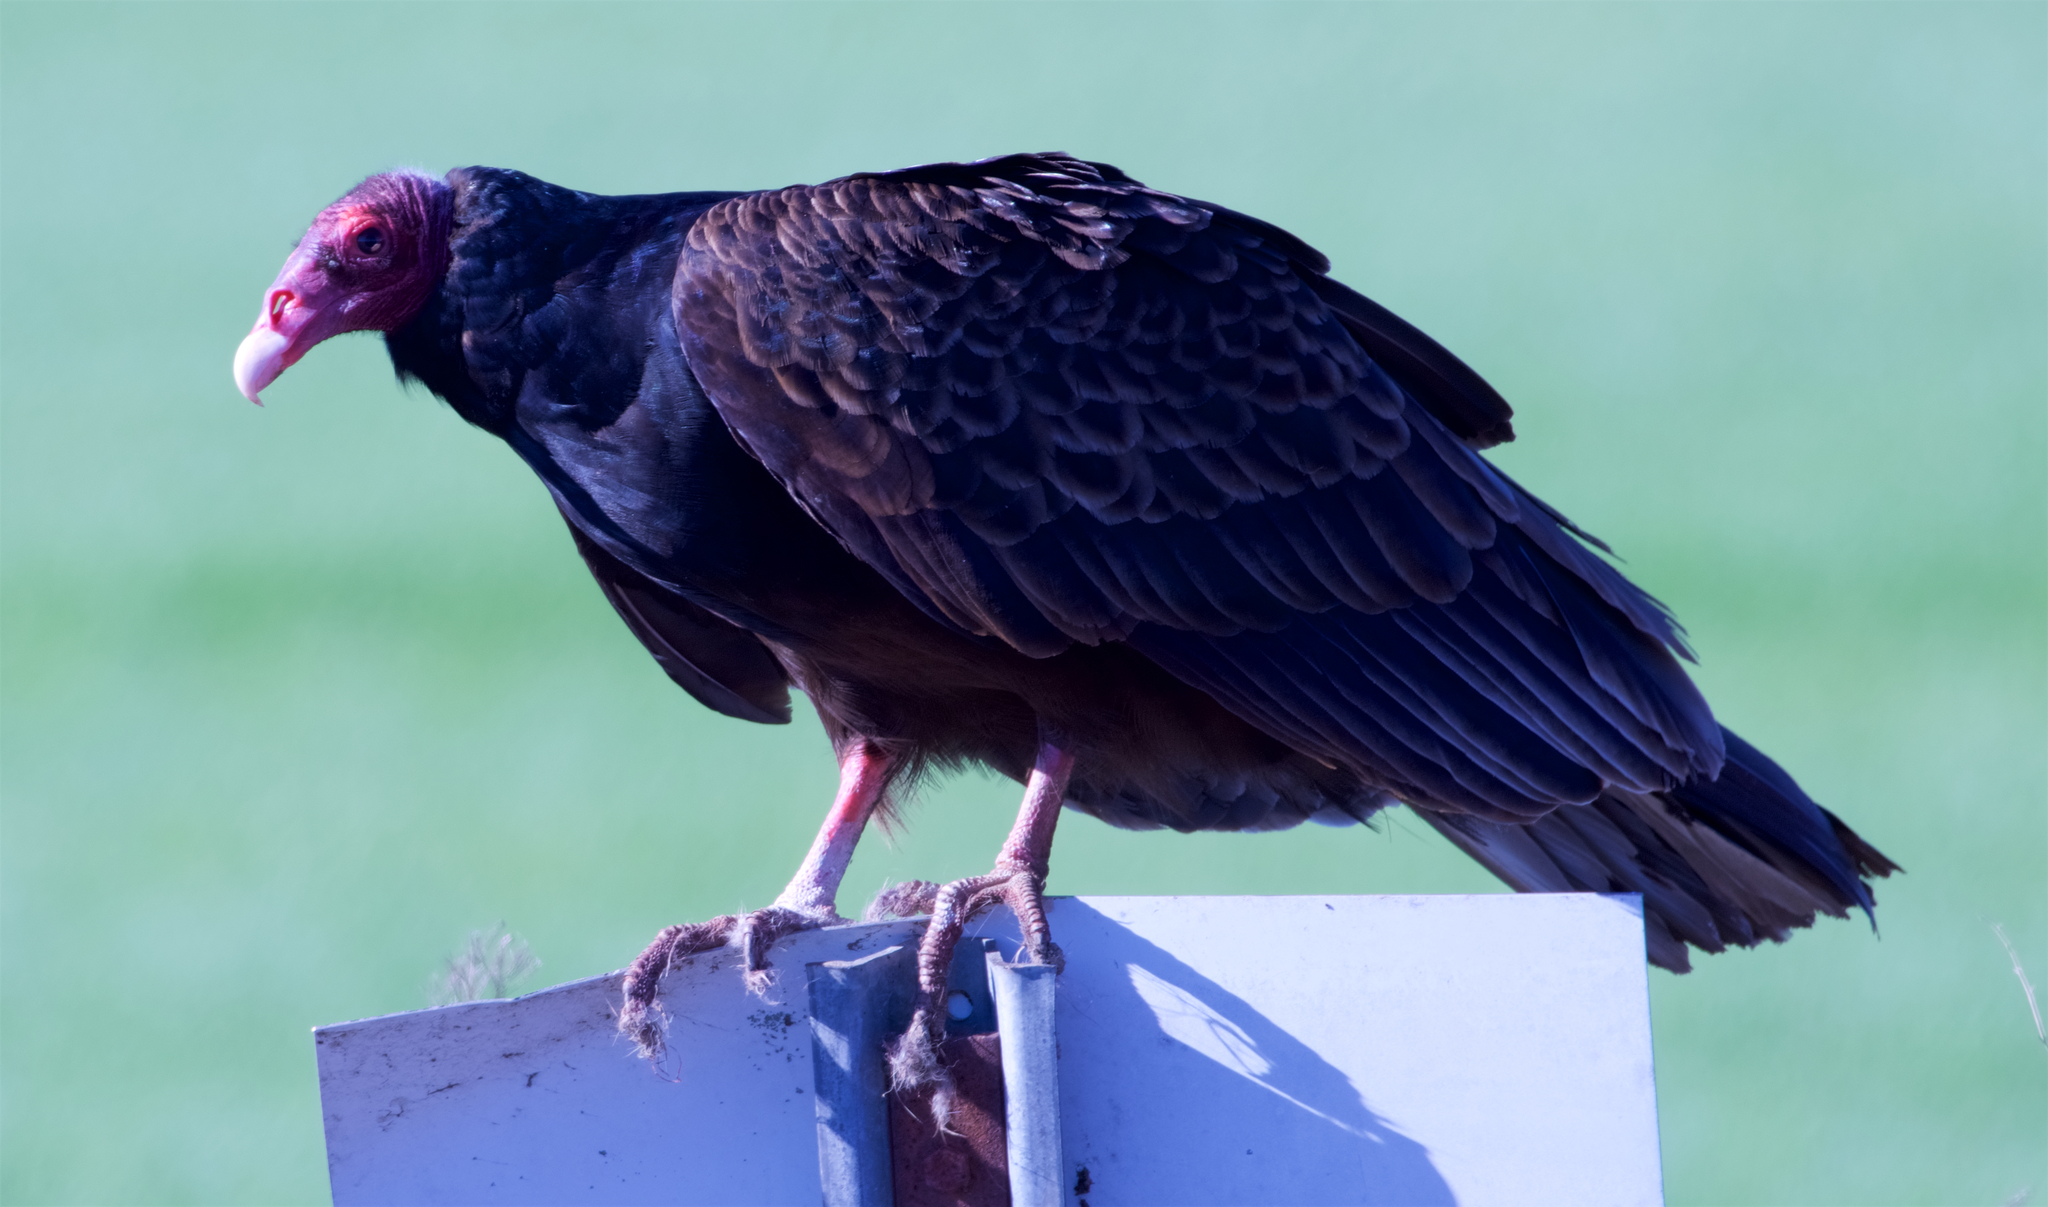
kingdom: Animalia
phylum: Chordata
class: Aves
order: Accipitriformes
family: Cathartidae
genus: Cathartes
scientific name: Cathartes aura
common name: Turkey vulture
